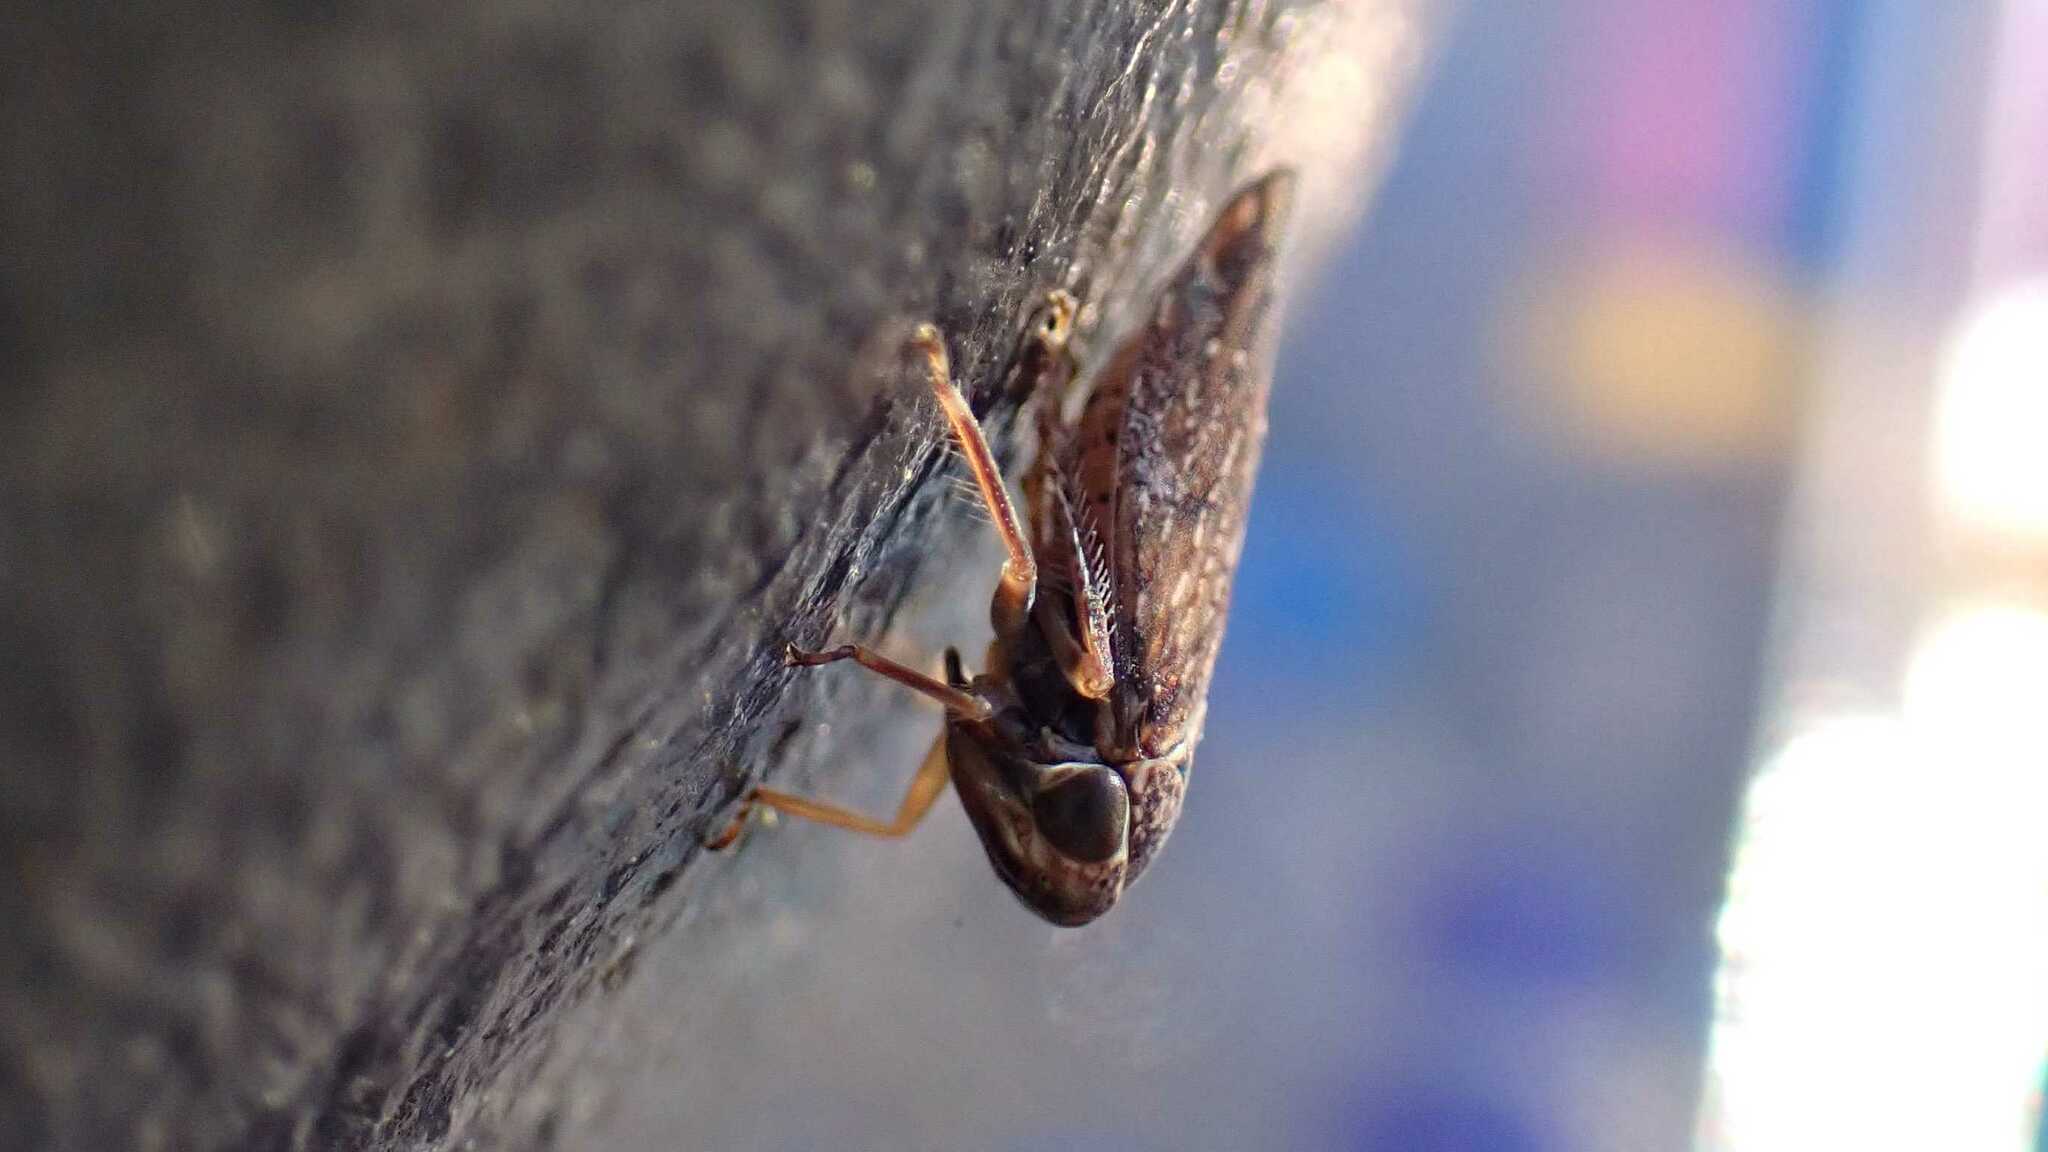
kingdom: Animalia
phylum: Arthropoda
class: Insecta
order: Hemiptera
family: Cicadellidae
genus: Acericerus
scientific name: Acericerus ribauti
